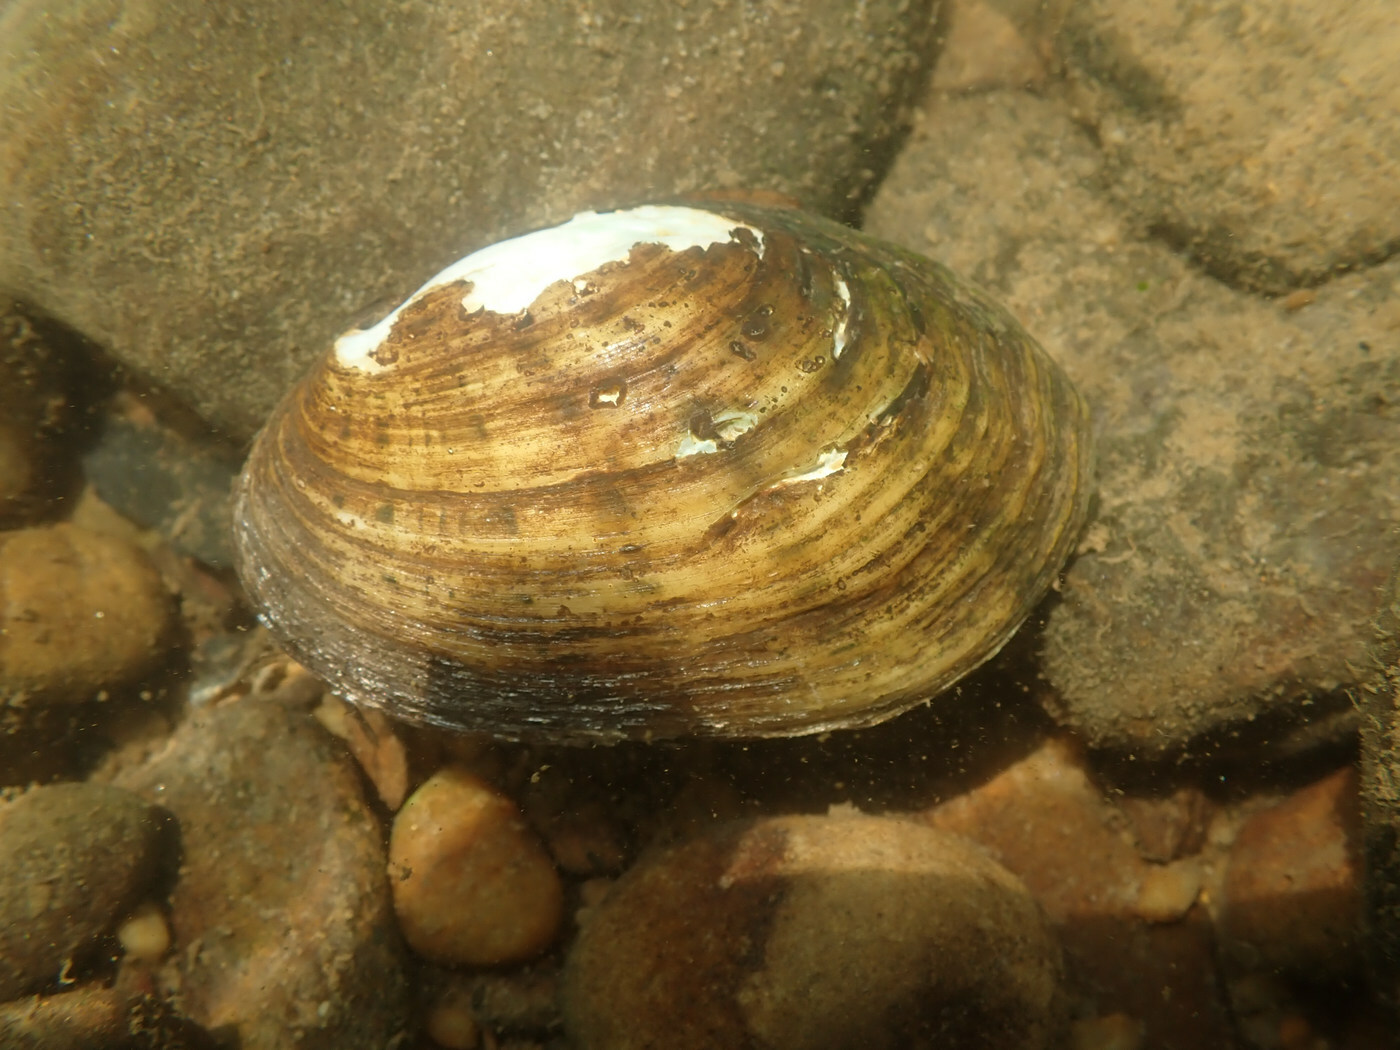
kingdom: Animalia
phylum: Mollusca
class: Bivalvia
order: Unionida
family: Unionidae
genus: Cambarunio
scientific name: Cambarunio taeniatus
